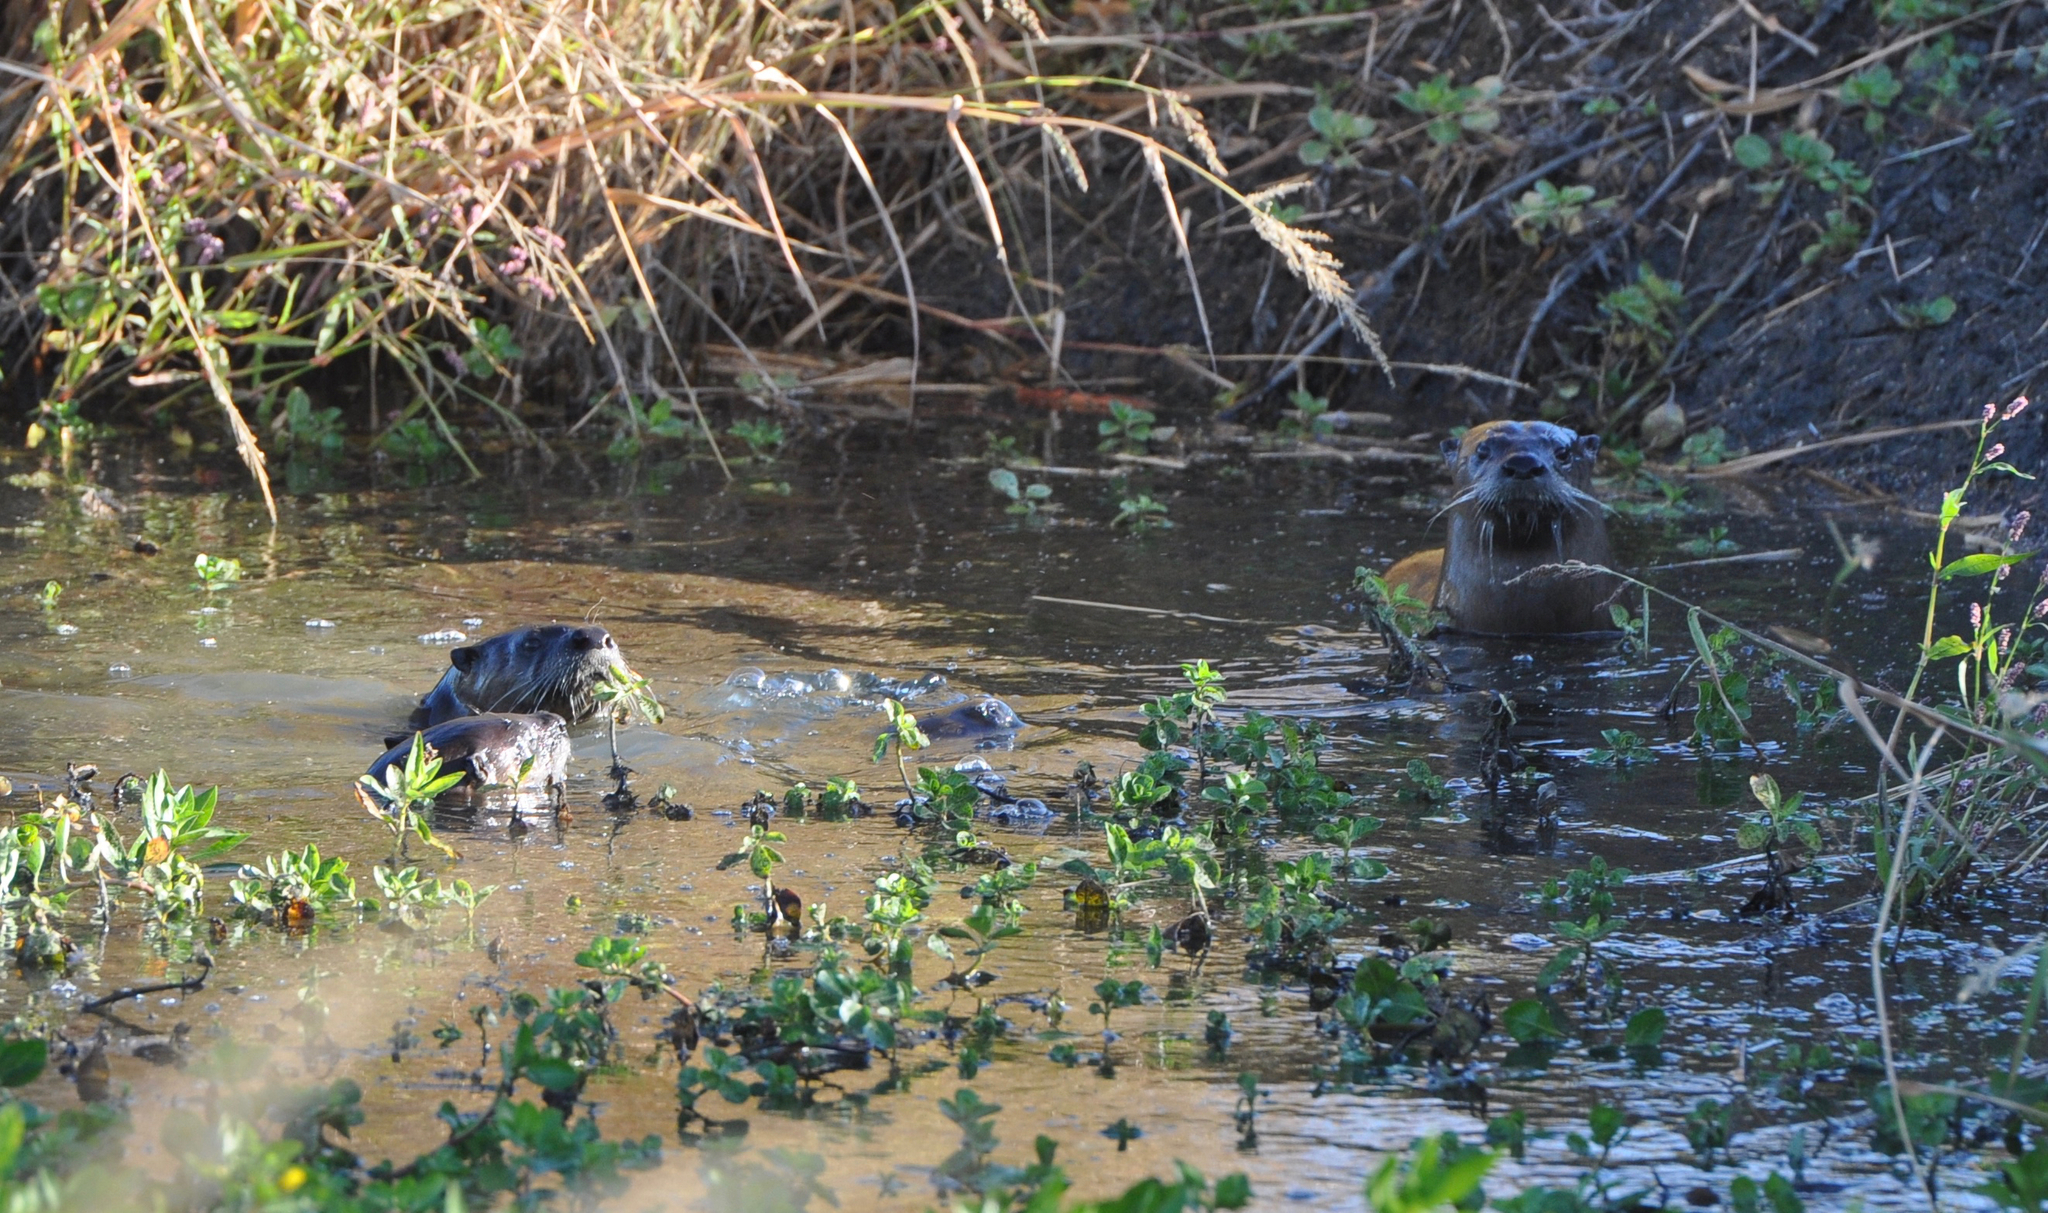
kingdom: Animalia
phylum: Chordata
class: Mammalia
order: Carnivora
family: Mustelidae
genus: Lontra
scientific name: Lontra canadensis
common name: North american river otter
